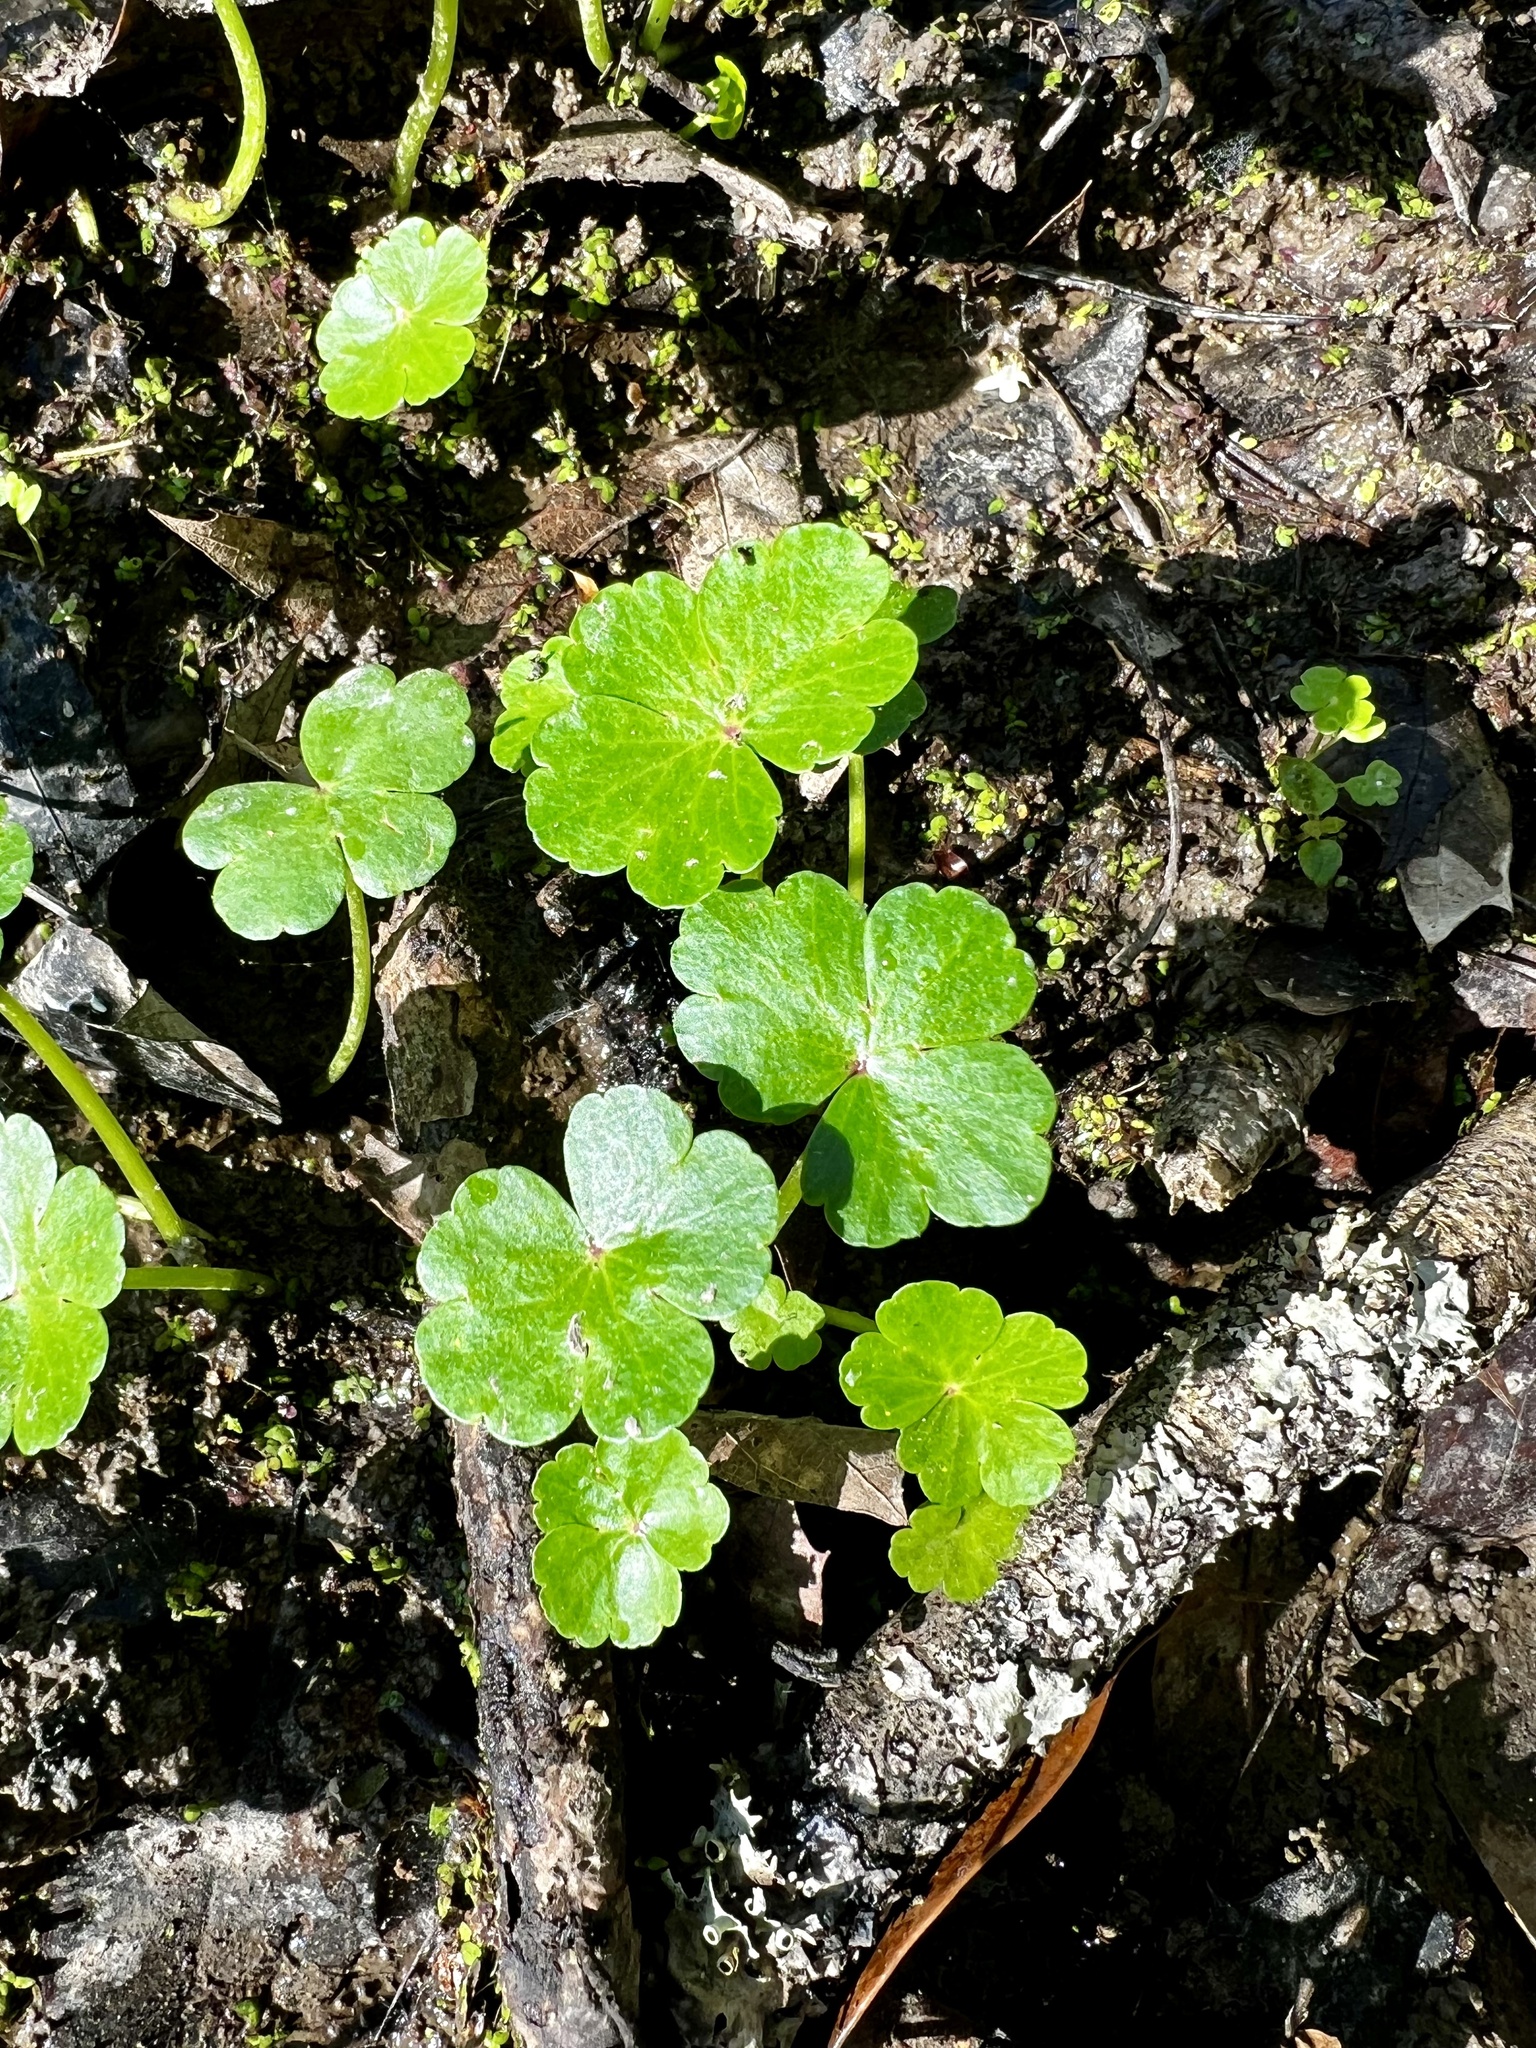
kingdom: Plantae
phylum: Tracheophyta
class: Magnoliopsida
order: Apiales
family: Araliaceae
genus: Hydrocotyle
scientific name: Hydrocotyle ranunculoides
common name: Floating pennywort
